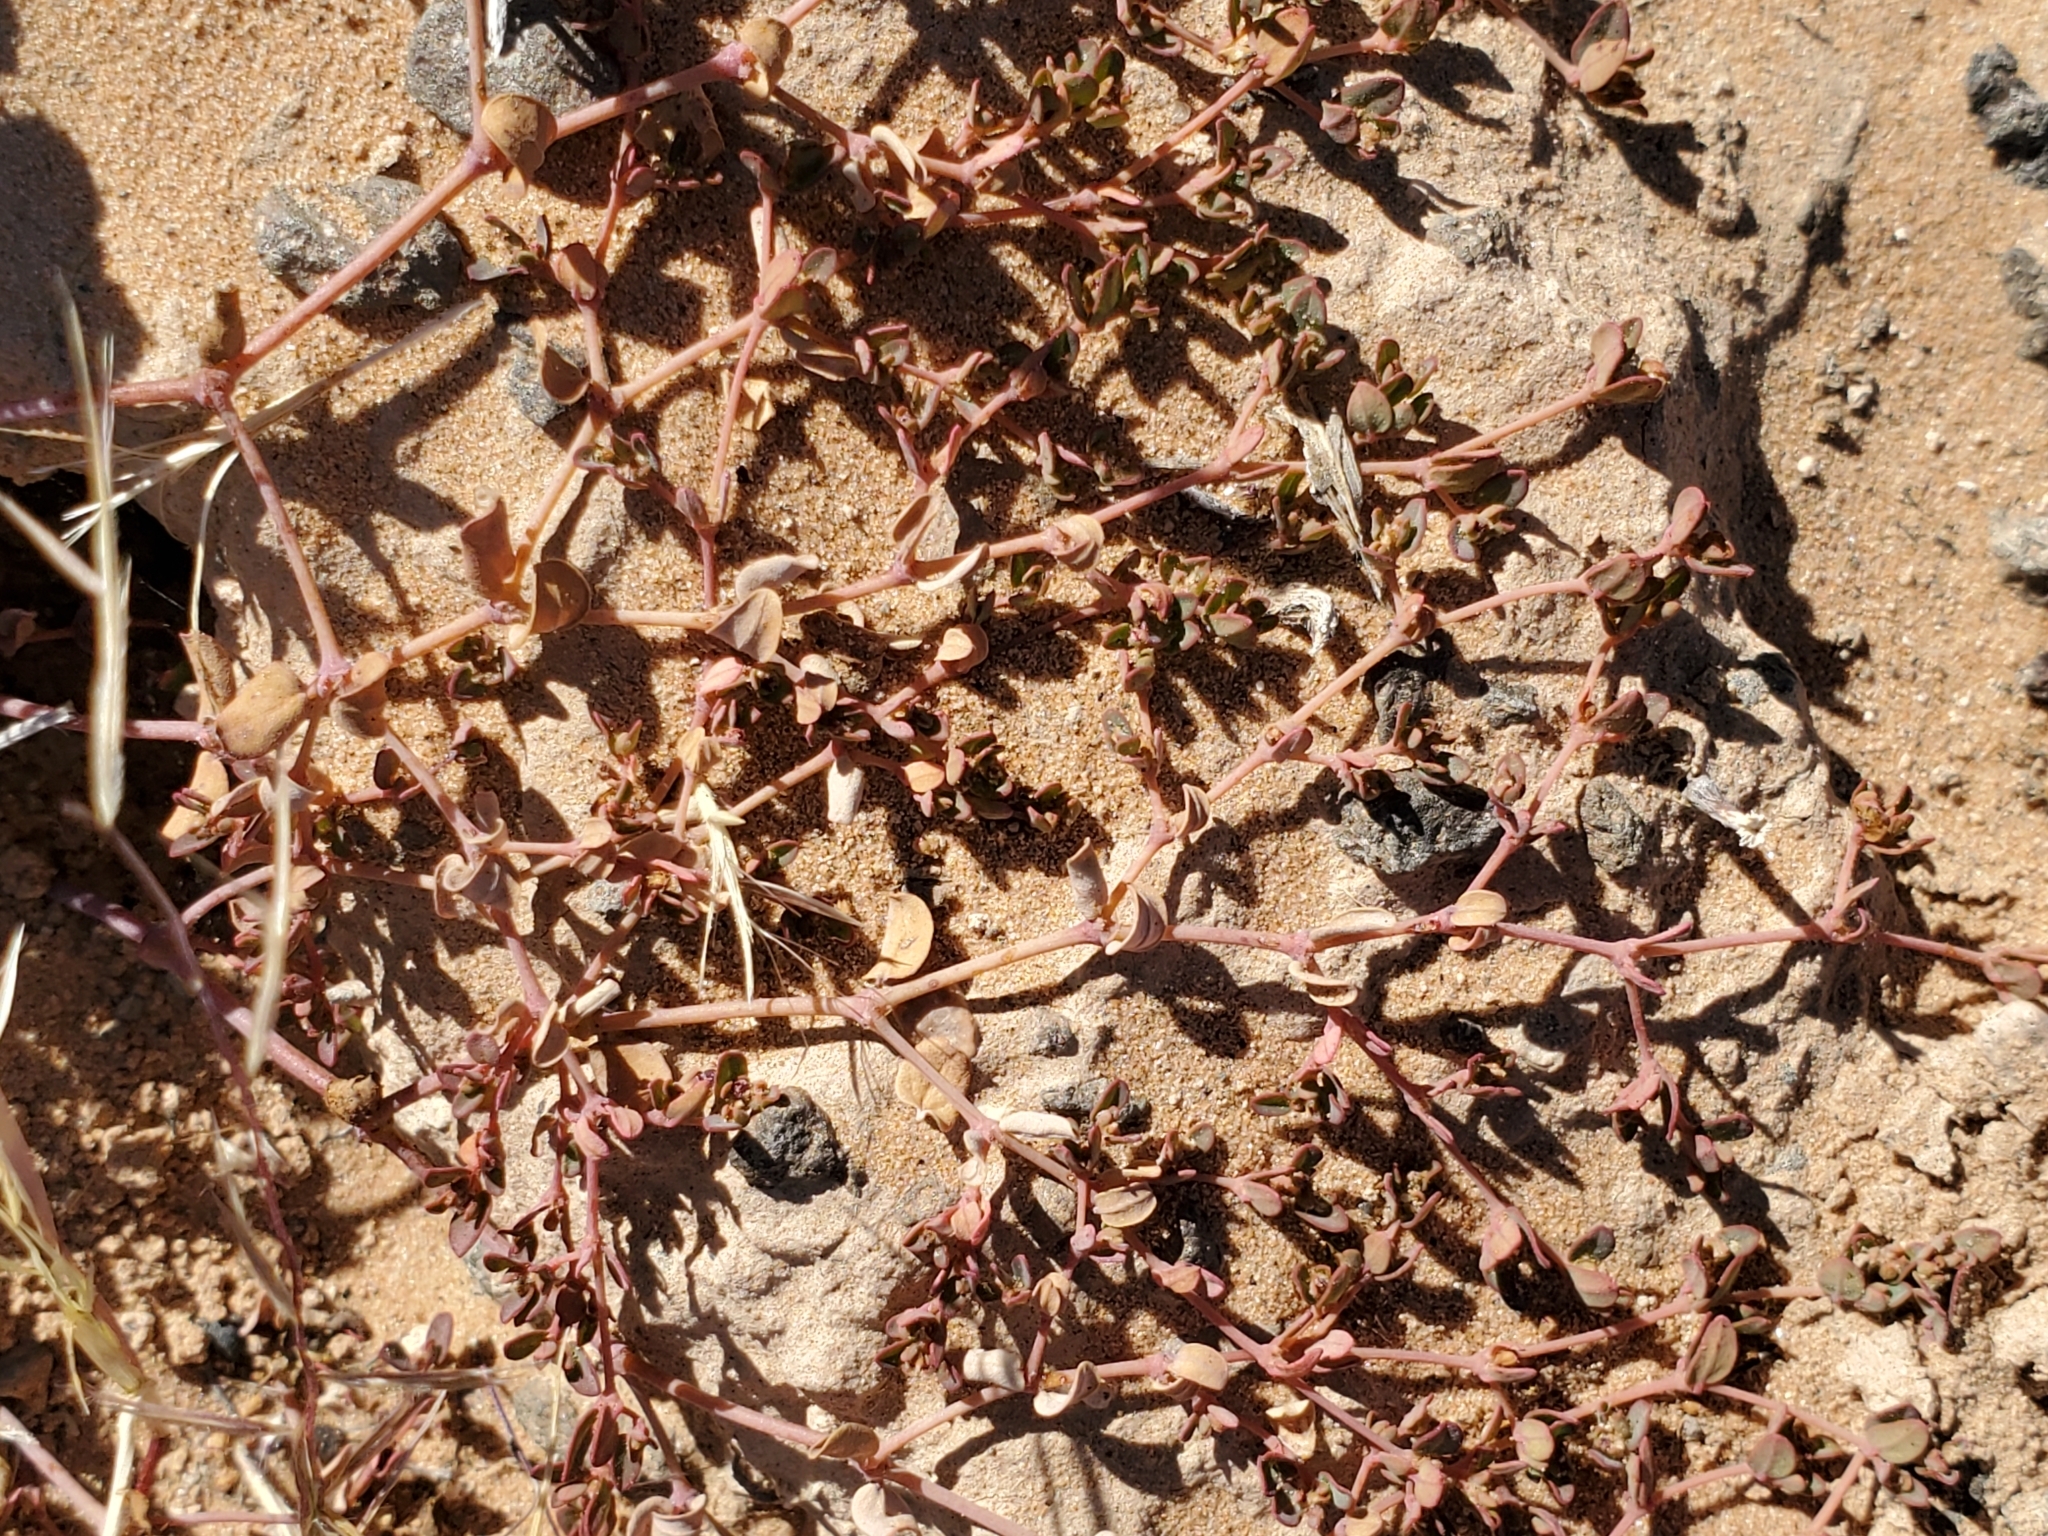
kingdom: Plantae
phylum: Tracheophyta
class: Magnoliopsida
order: Malpighiales
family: Euphorbiaceae
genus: Euphorbia
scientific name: Euphorbia micromera
